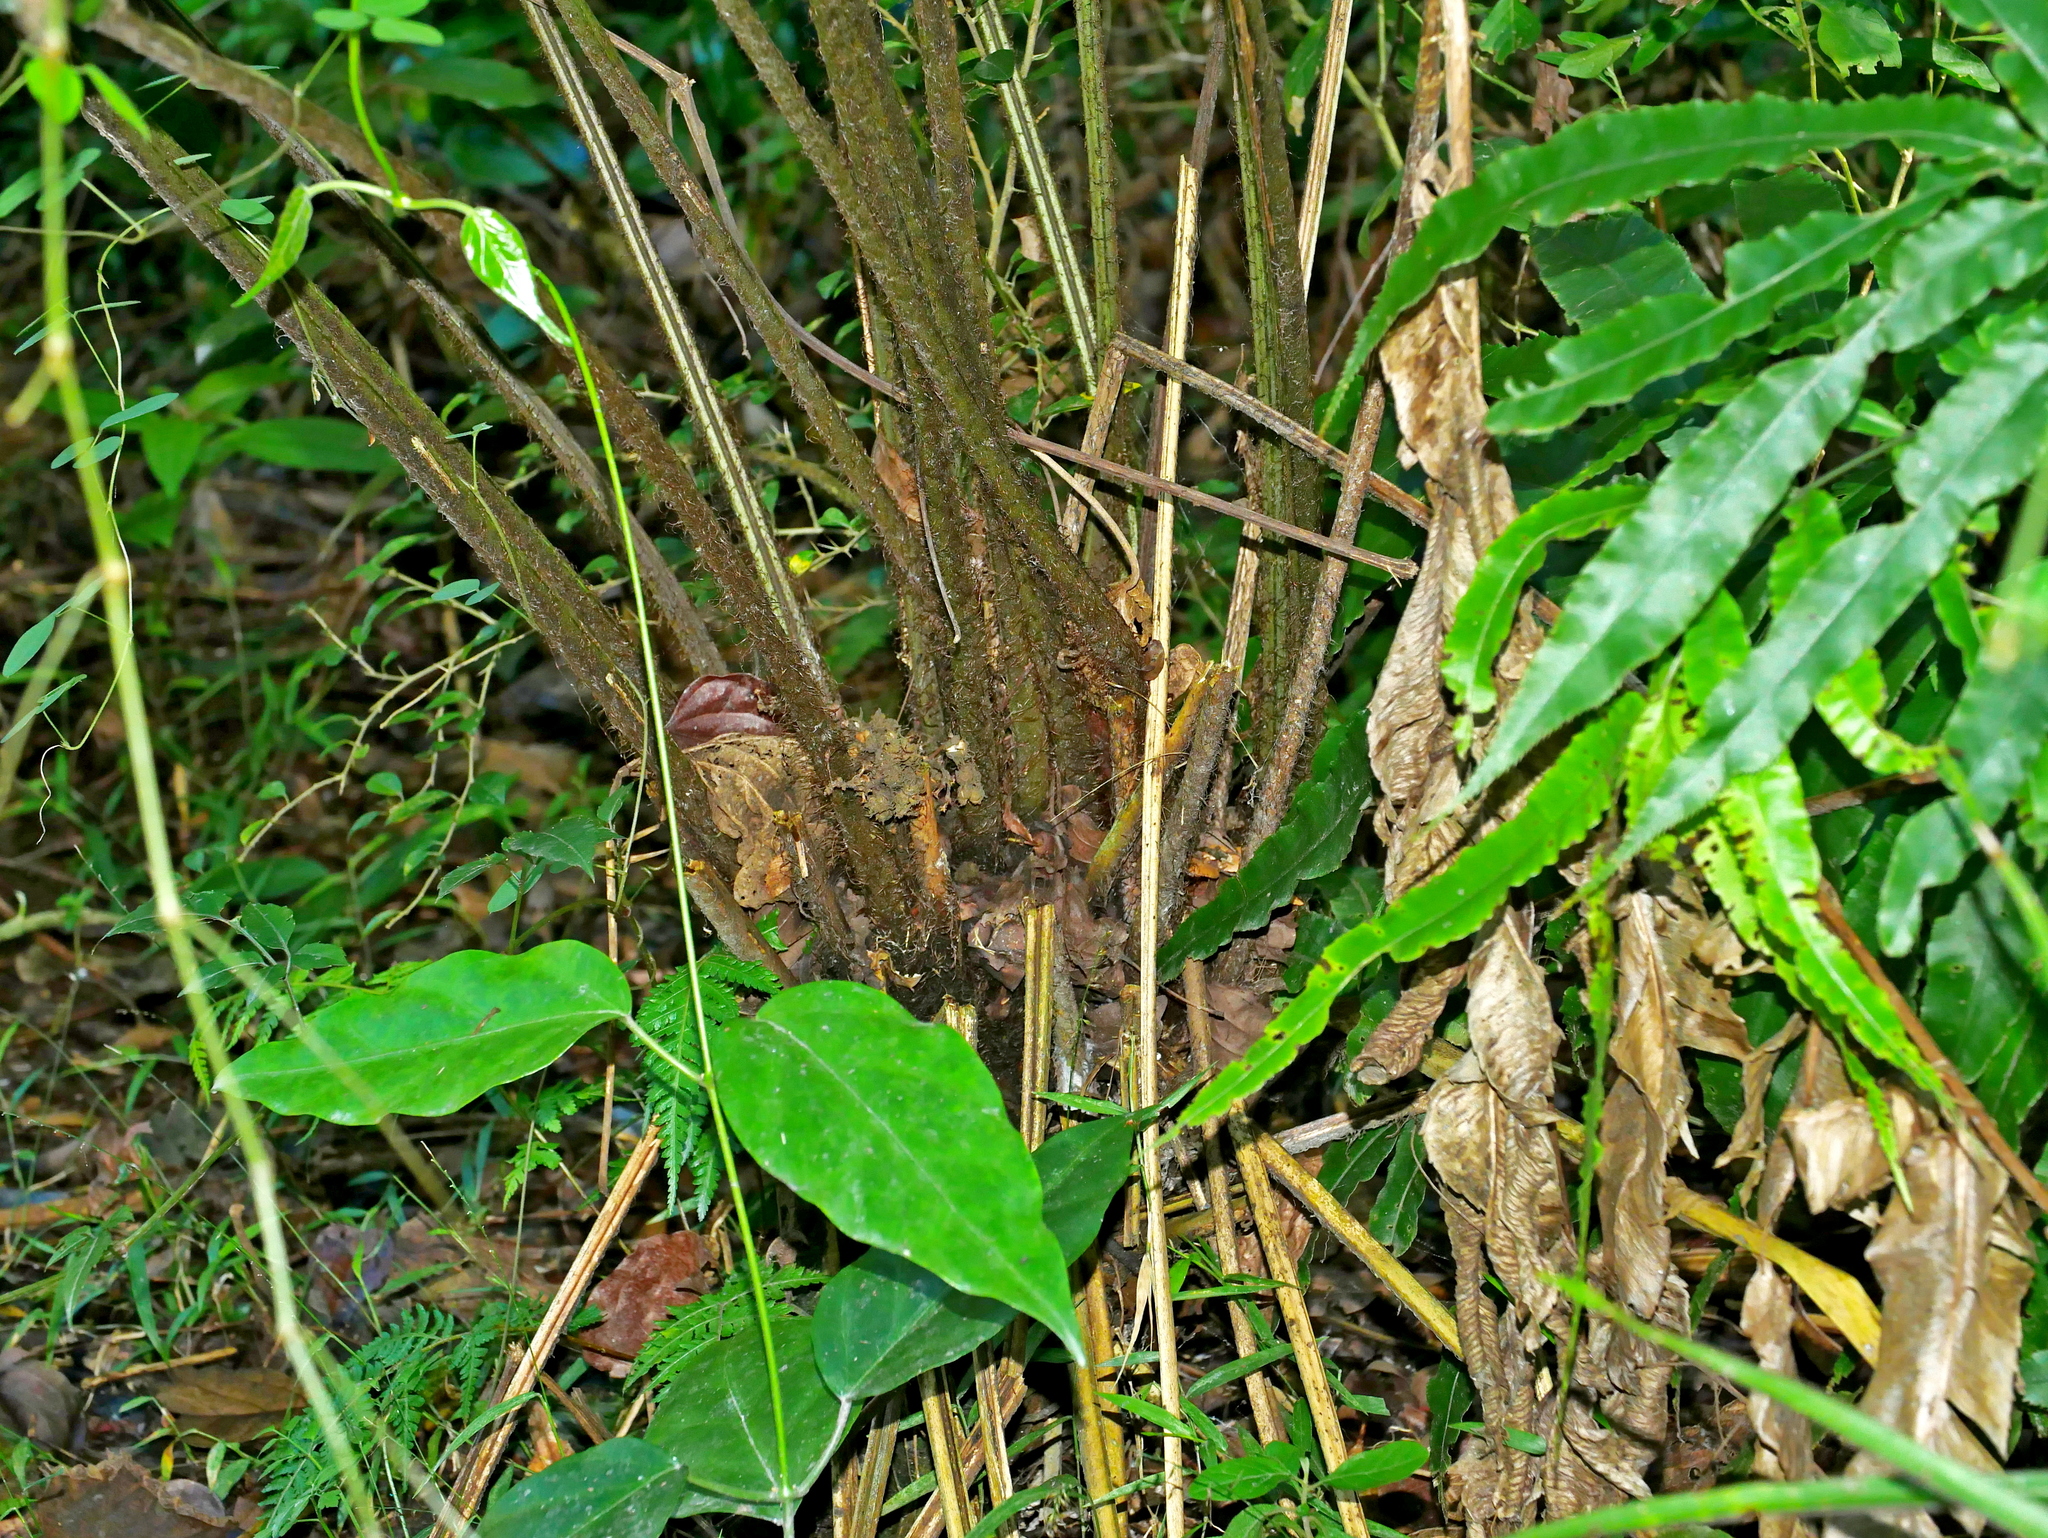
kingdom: Plantae
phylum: Tracheophyta
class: Polypodiopsida
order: Polypodiales
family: Athyriaceae
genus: Diplazium
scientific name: Diplazium megaphyllum
